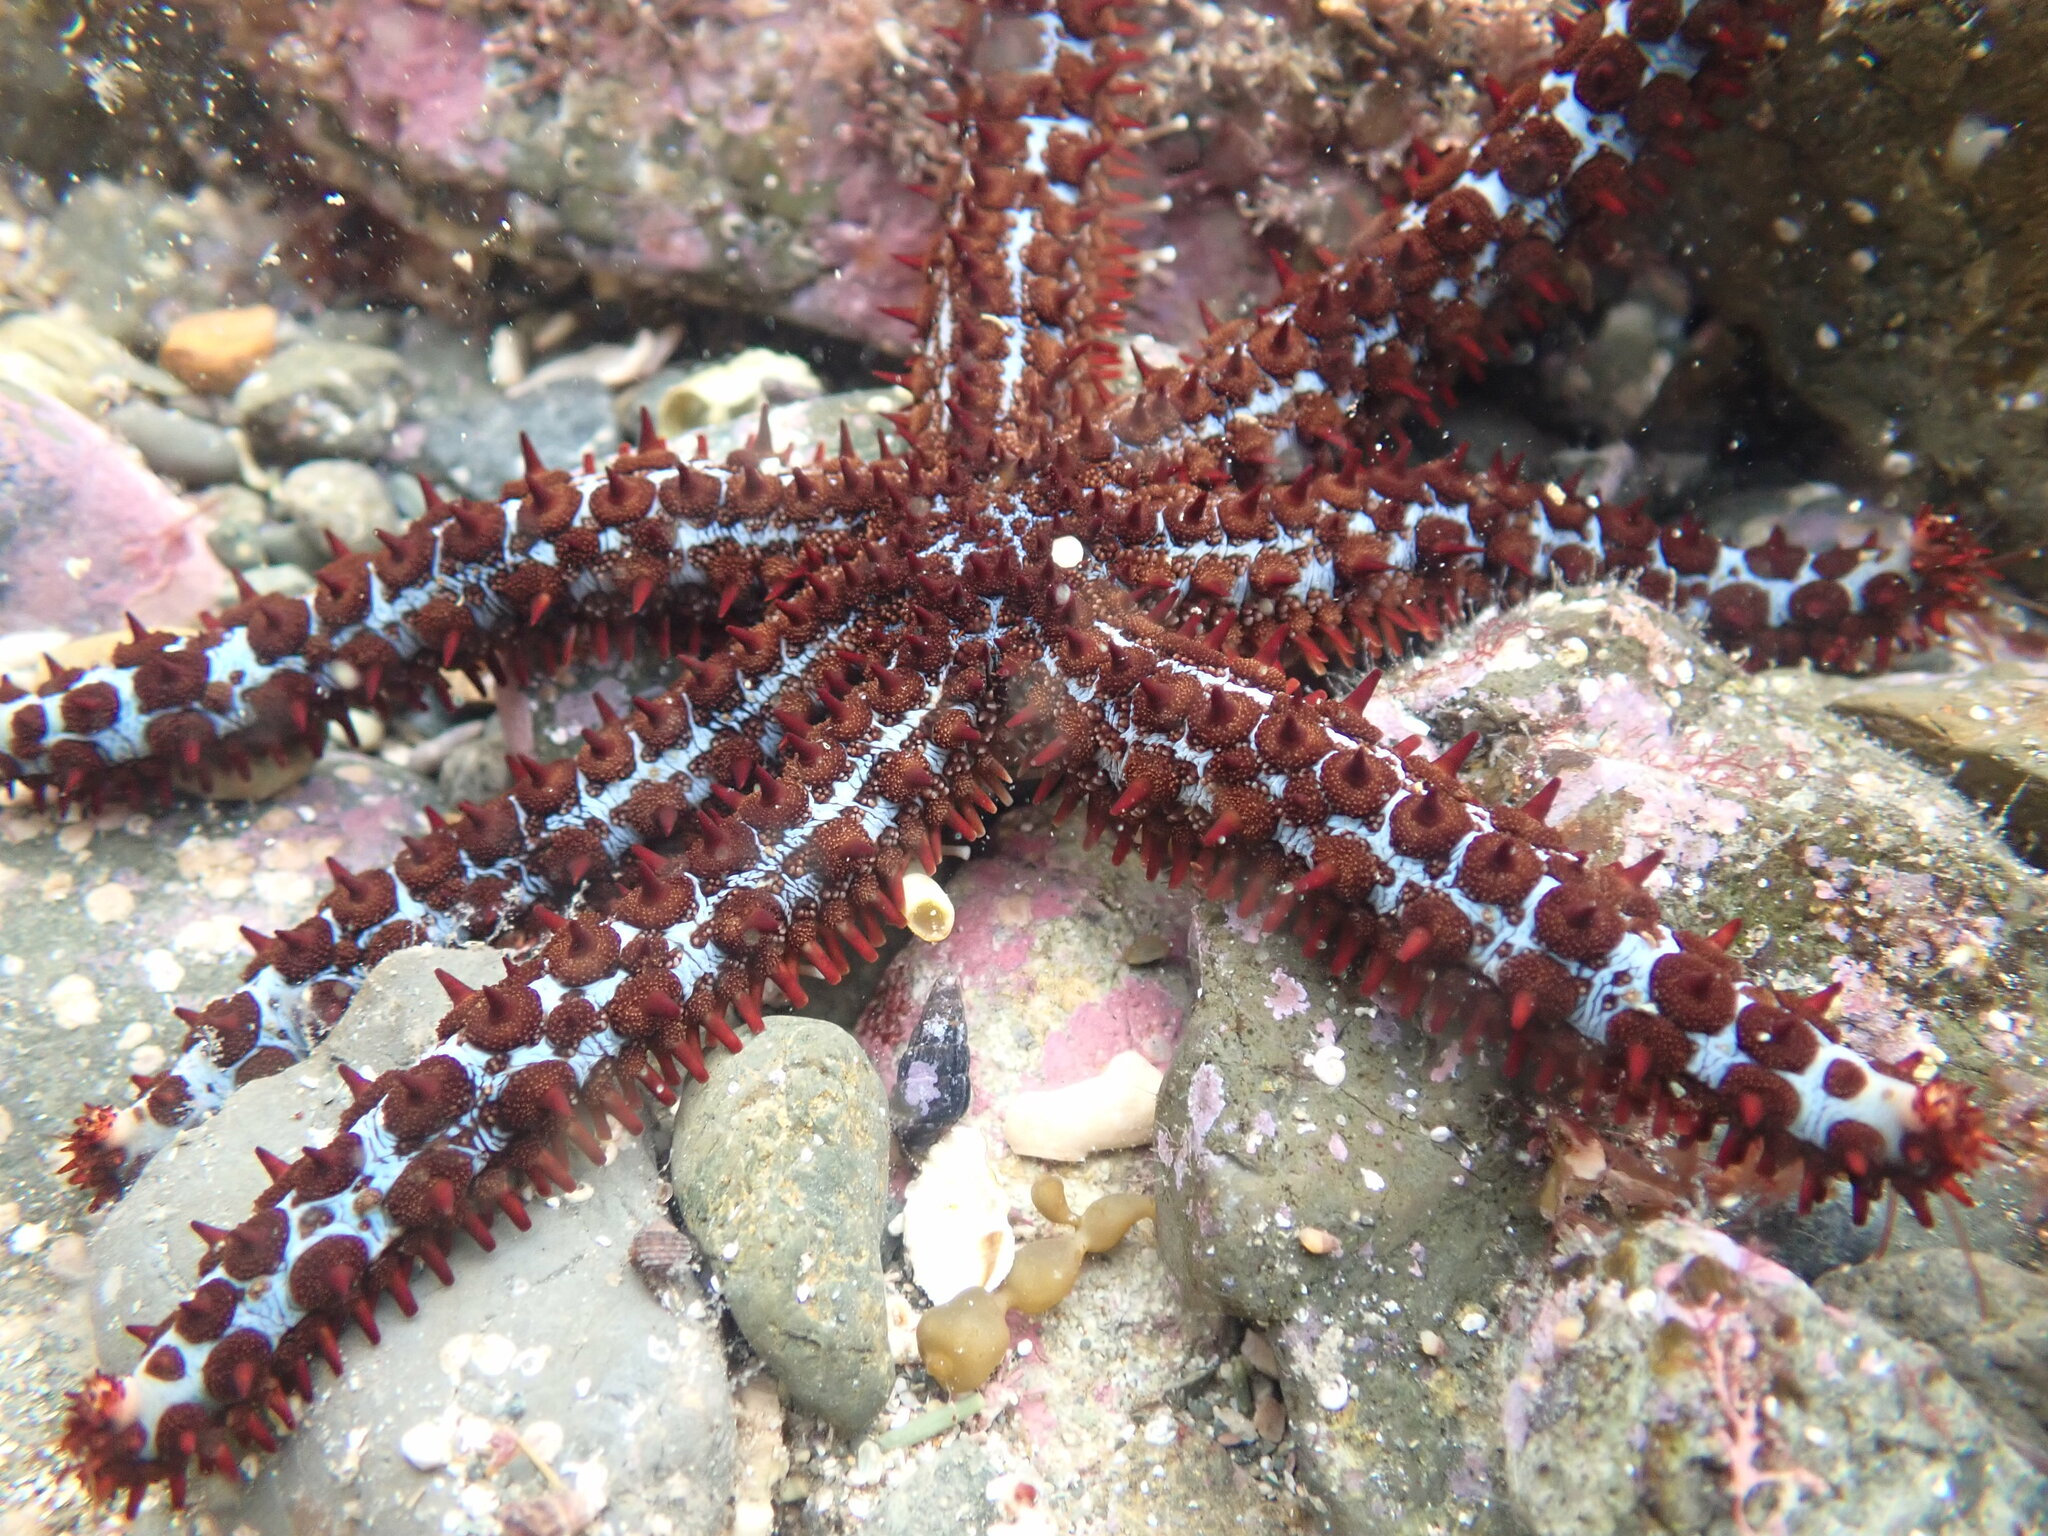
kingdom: Animalia
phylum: Echinodermata
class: Asteroidea
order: Forcipulatida
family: Asteriidae
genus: Astrostole
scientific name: Astrostole rodolphi
